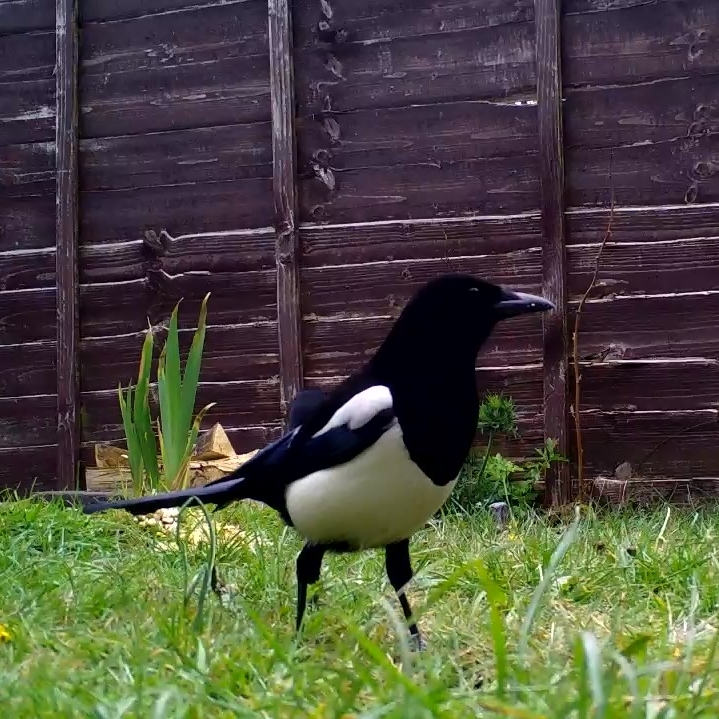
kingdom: Animalia
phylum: Chordata
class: Aves
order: Passeriformes
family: Corvidae
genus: Pica
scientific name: Pica pica
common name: Eurasian magpie
